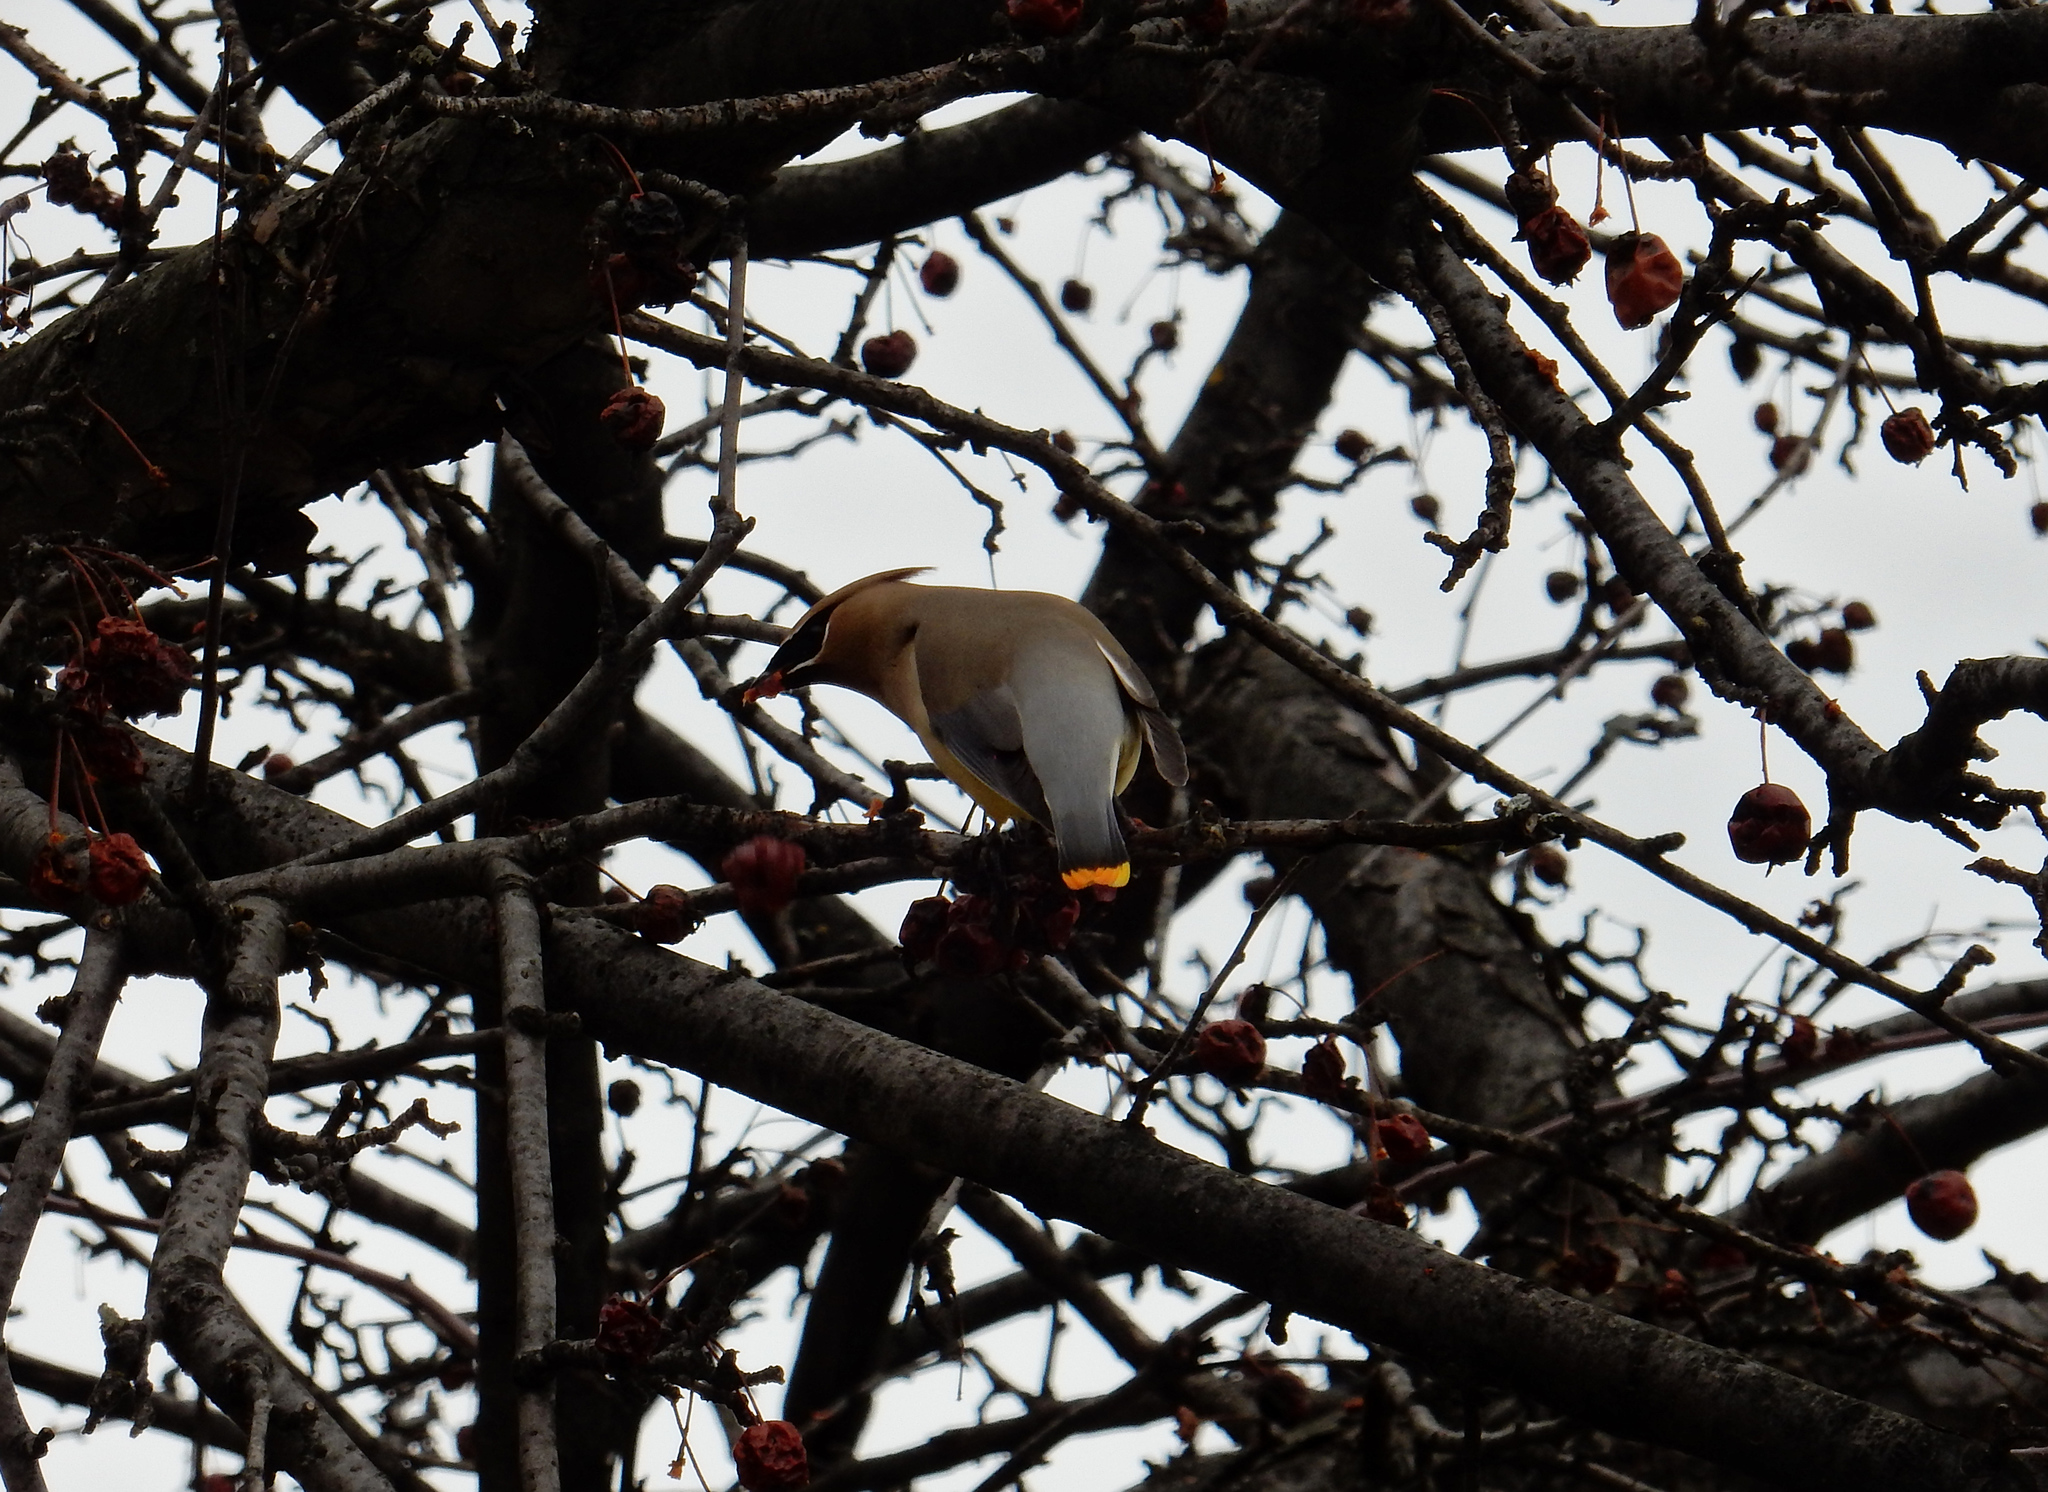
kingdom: Animalia
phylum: Chordata
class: Aves
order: Passeriformes
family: Bombycillidae
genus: Bombycilla
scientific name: Bombycilla garrulus
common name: Bohemian waxwing
